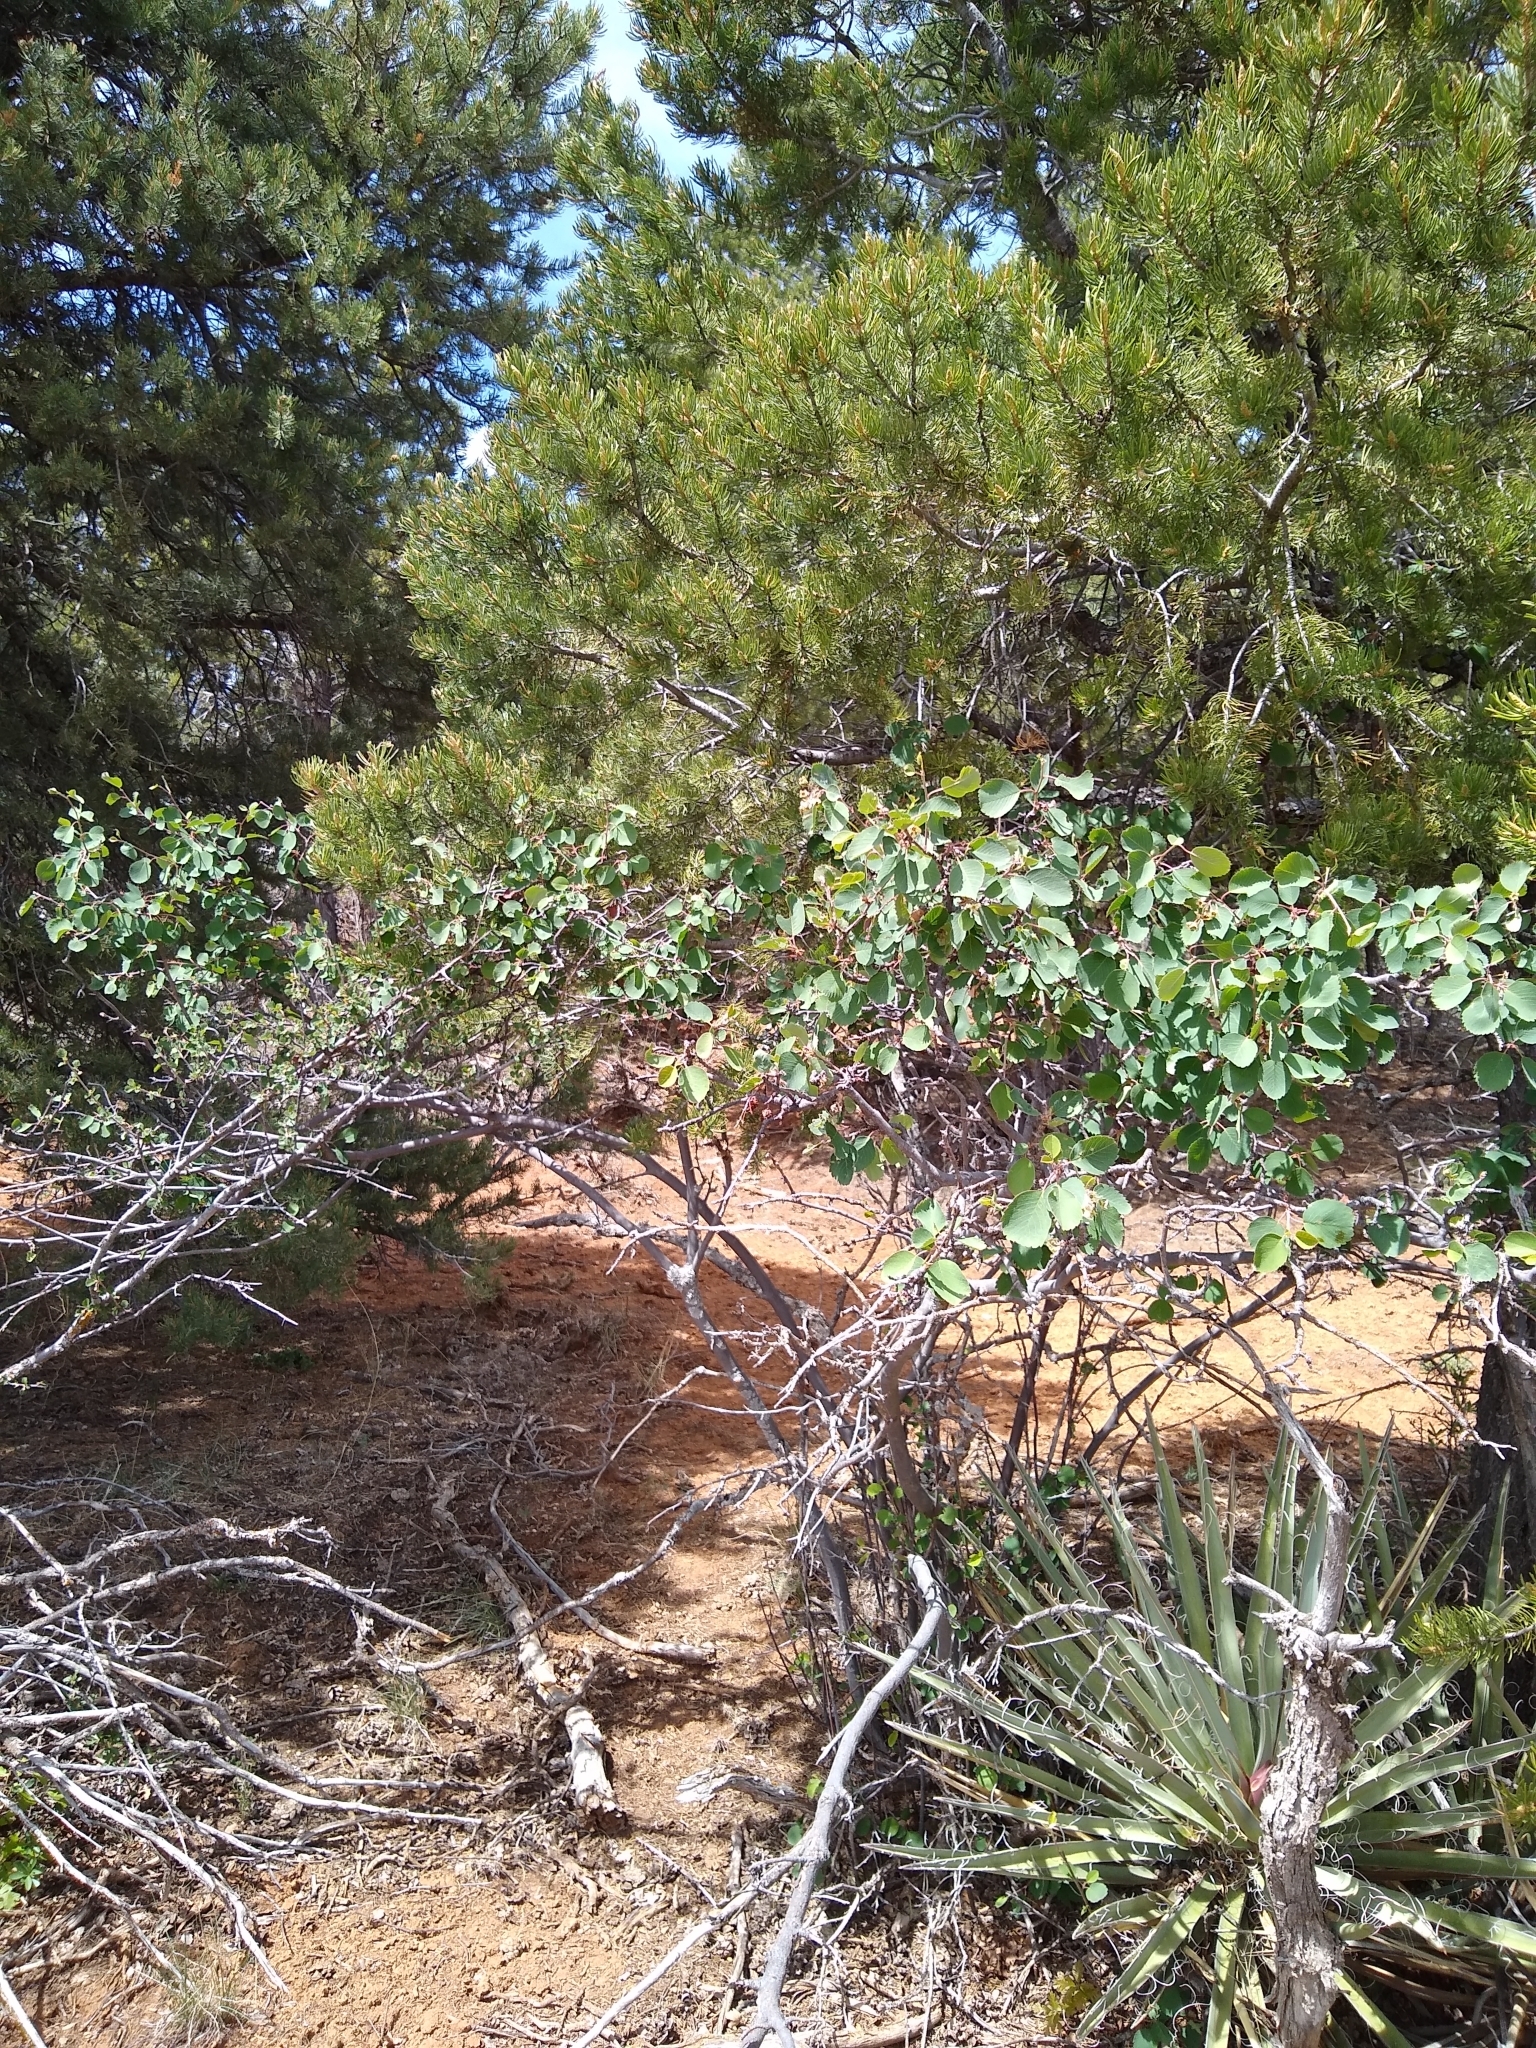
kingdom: Plantae
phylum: Tracheophyta
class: Magnoliopsida
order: Rosales
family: Rosaceae
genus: Amelanchier
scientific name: Amelanchier utahensis
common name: Utah serviceberry
